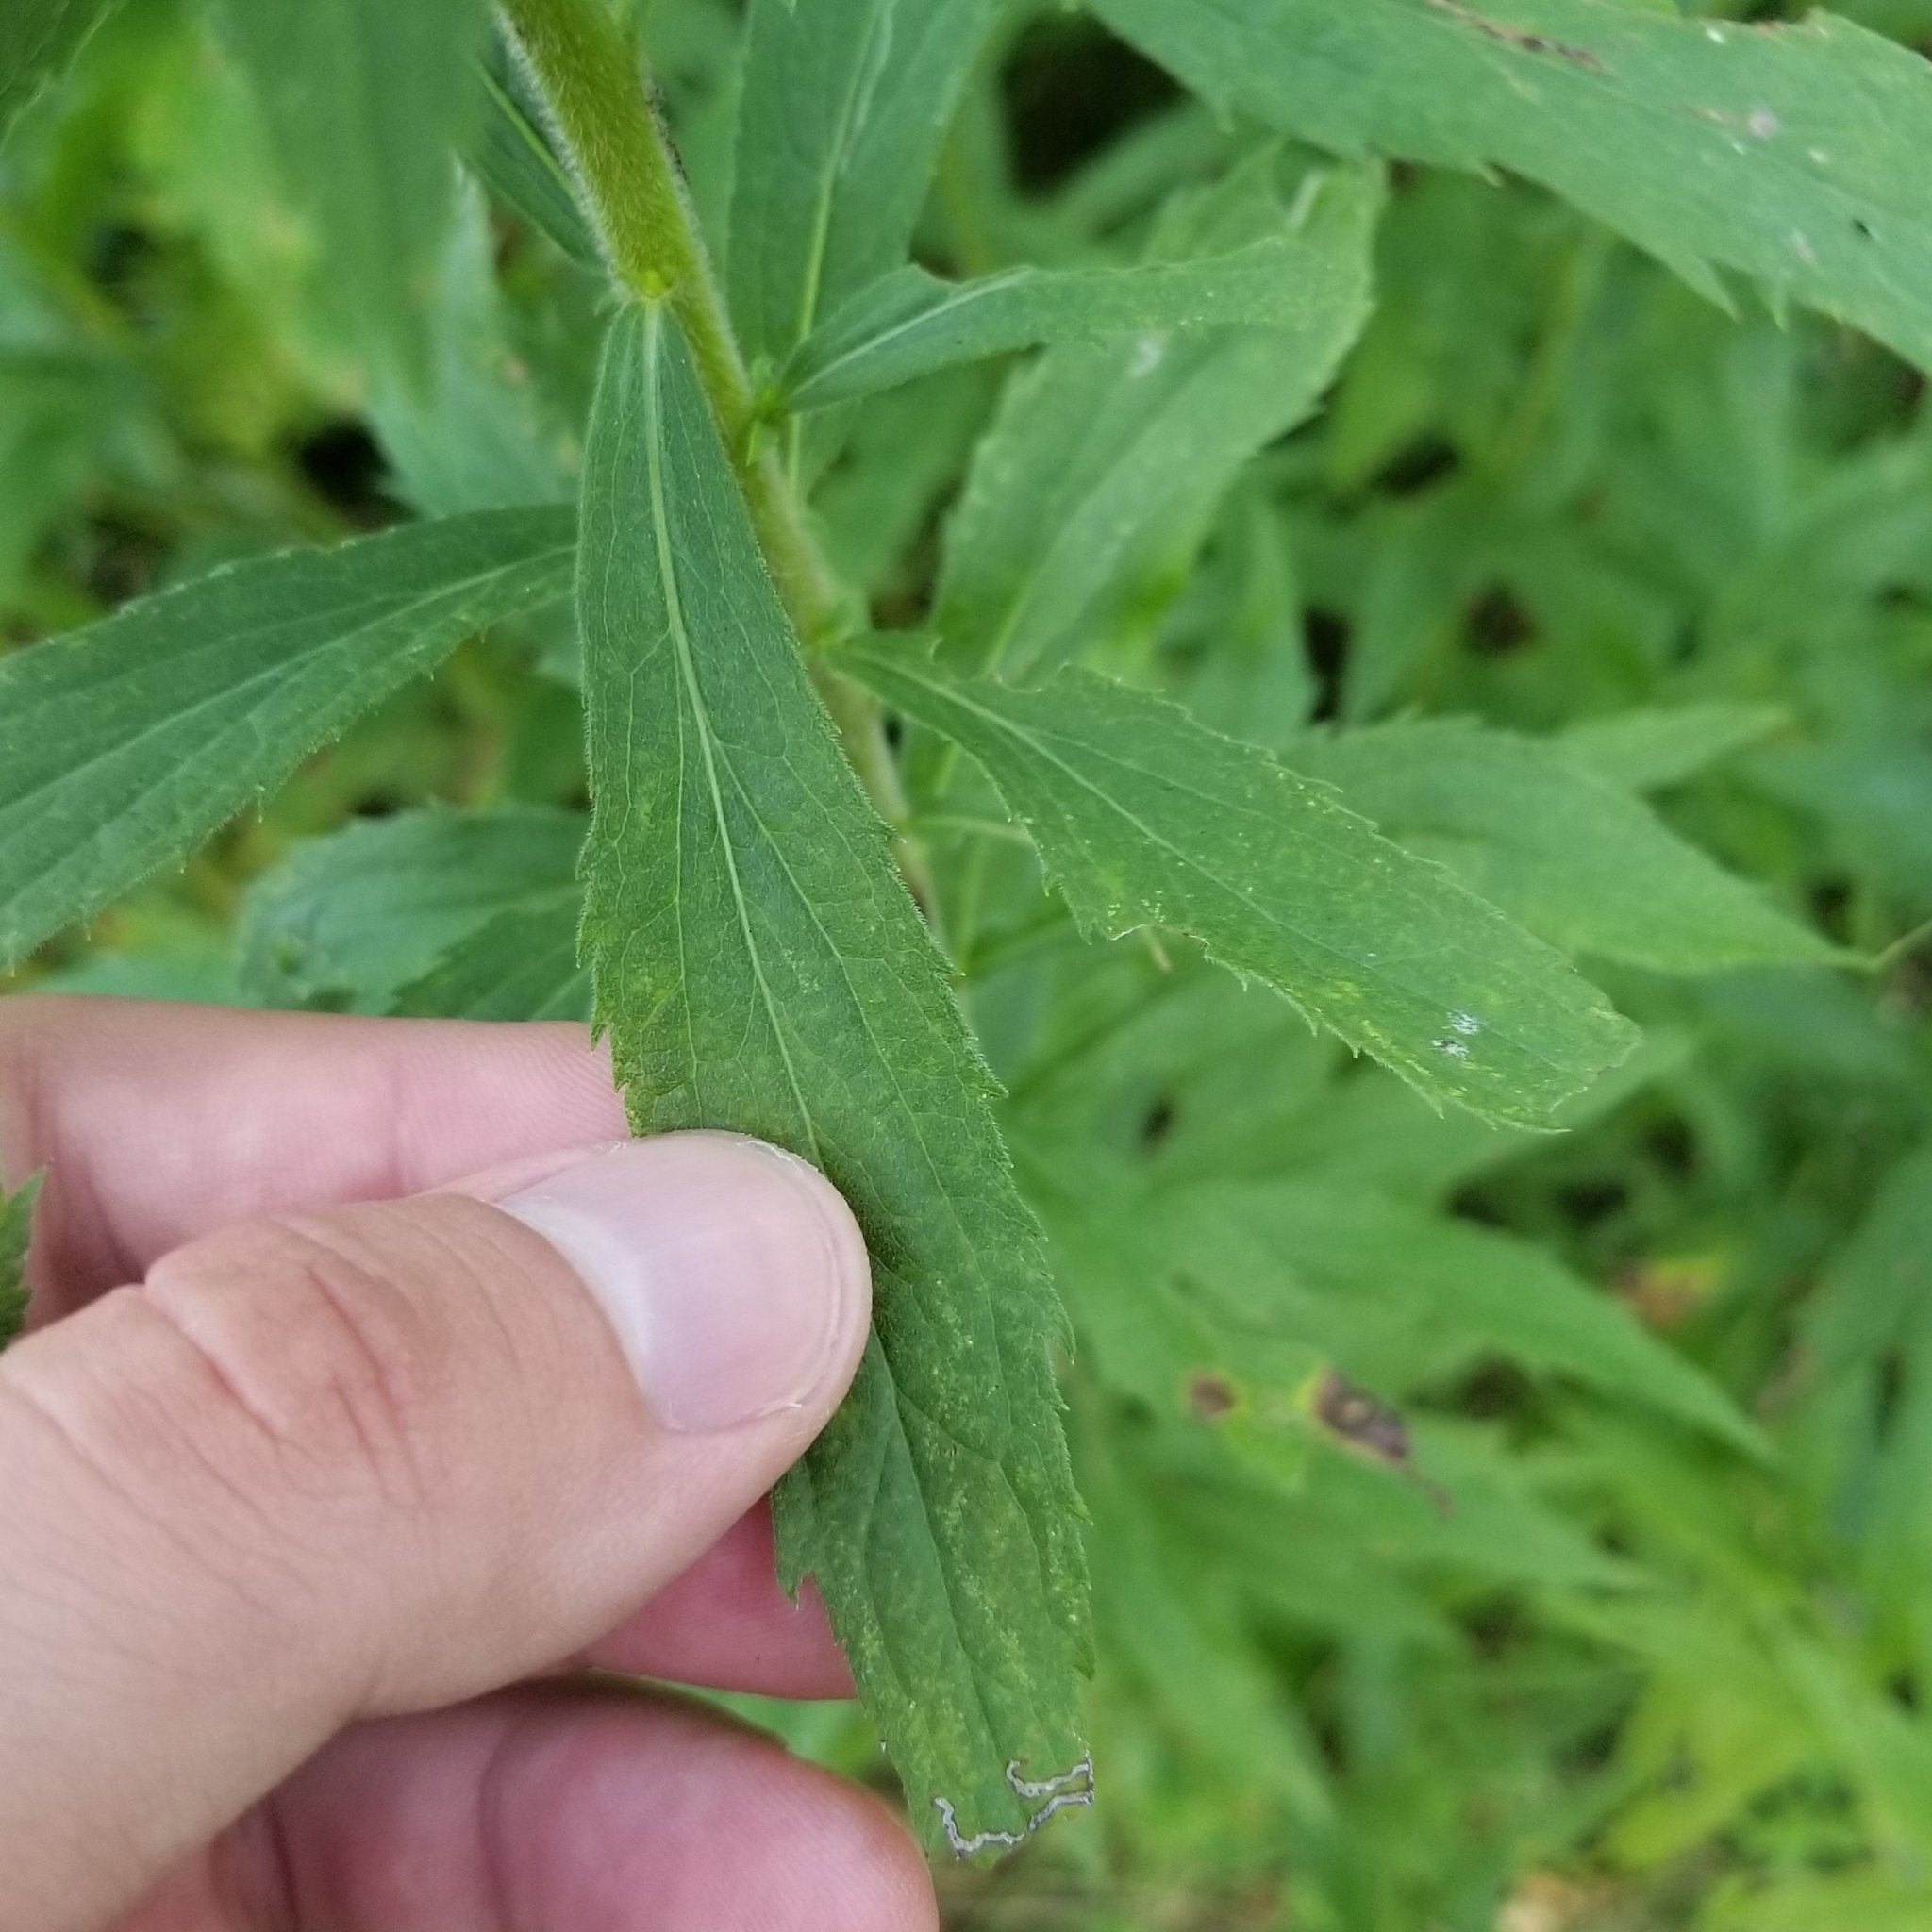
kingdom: Plantae
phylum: Tracheophyta
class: Magnoliopsida
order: Asterales
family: Asteraceae
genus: Solidago
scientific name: Solidago canadensis
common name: Canada goldenrod
